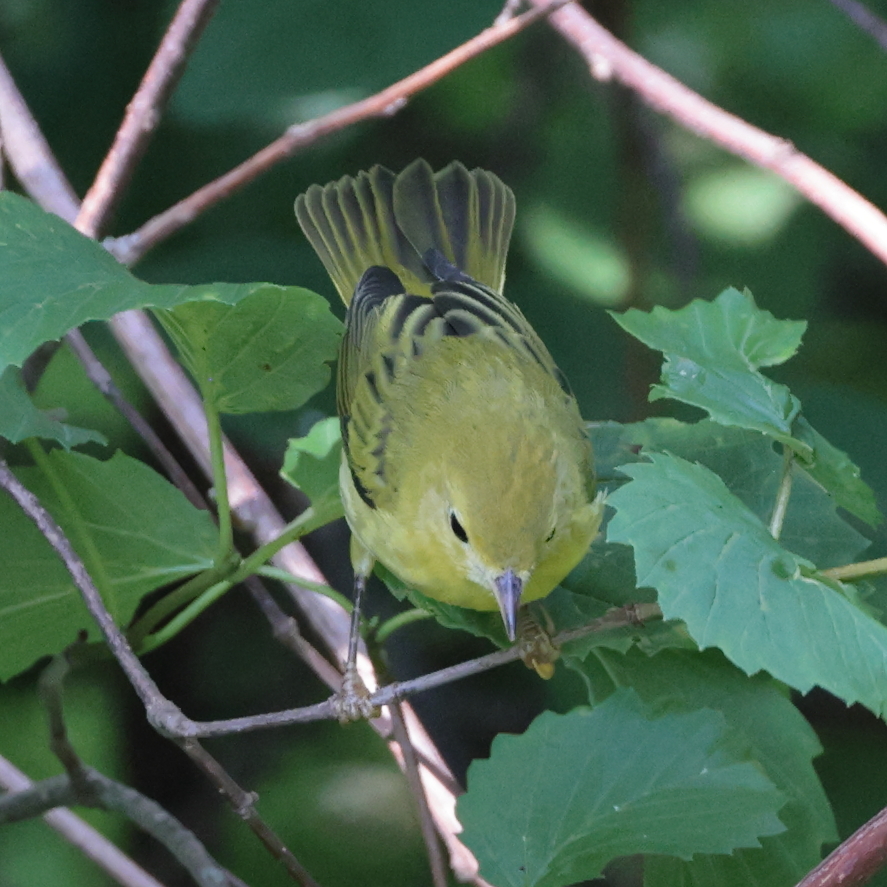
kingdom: Animalia
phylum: Chordata
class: Aves
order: Passeriformes
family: Parulidae
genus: Setophaga
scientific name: Setophaga petechia
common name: Yellow warbler
